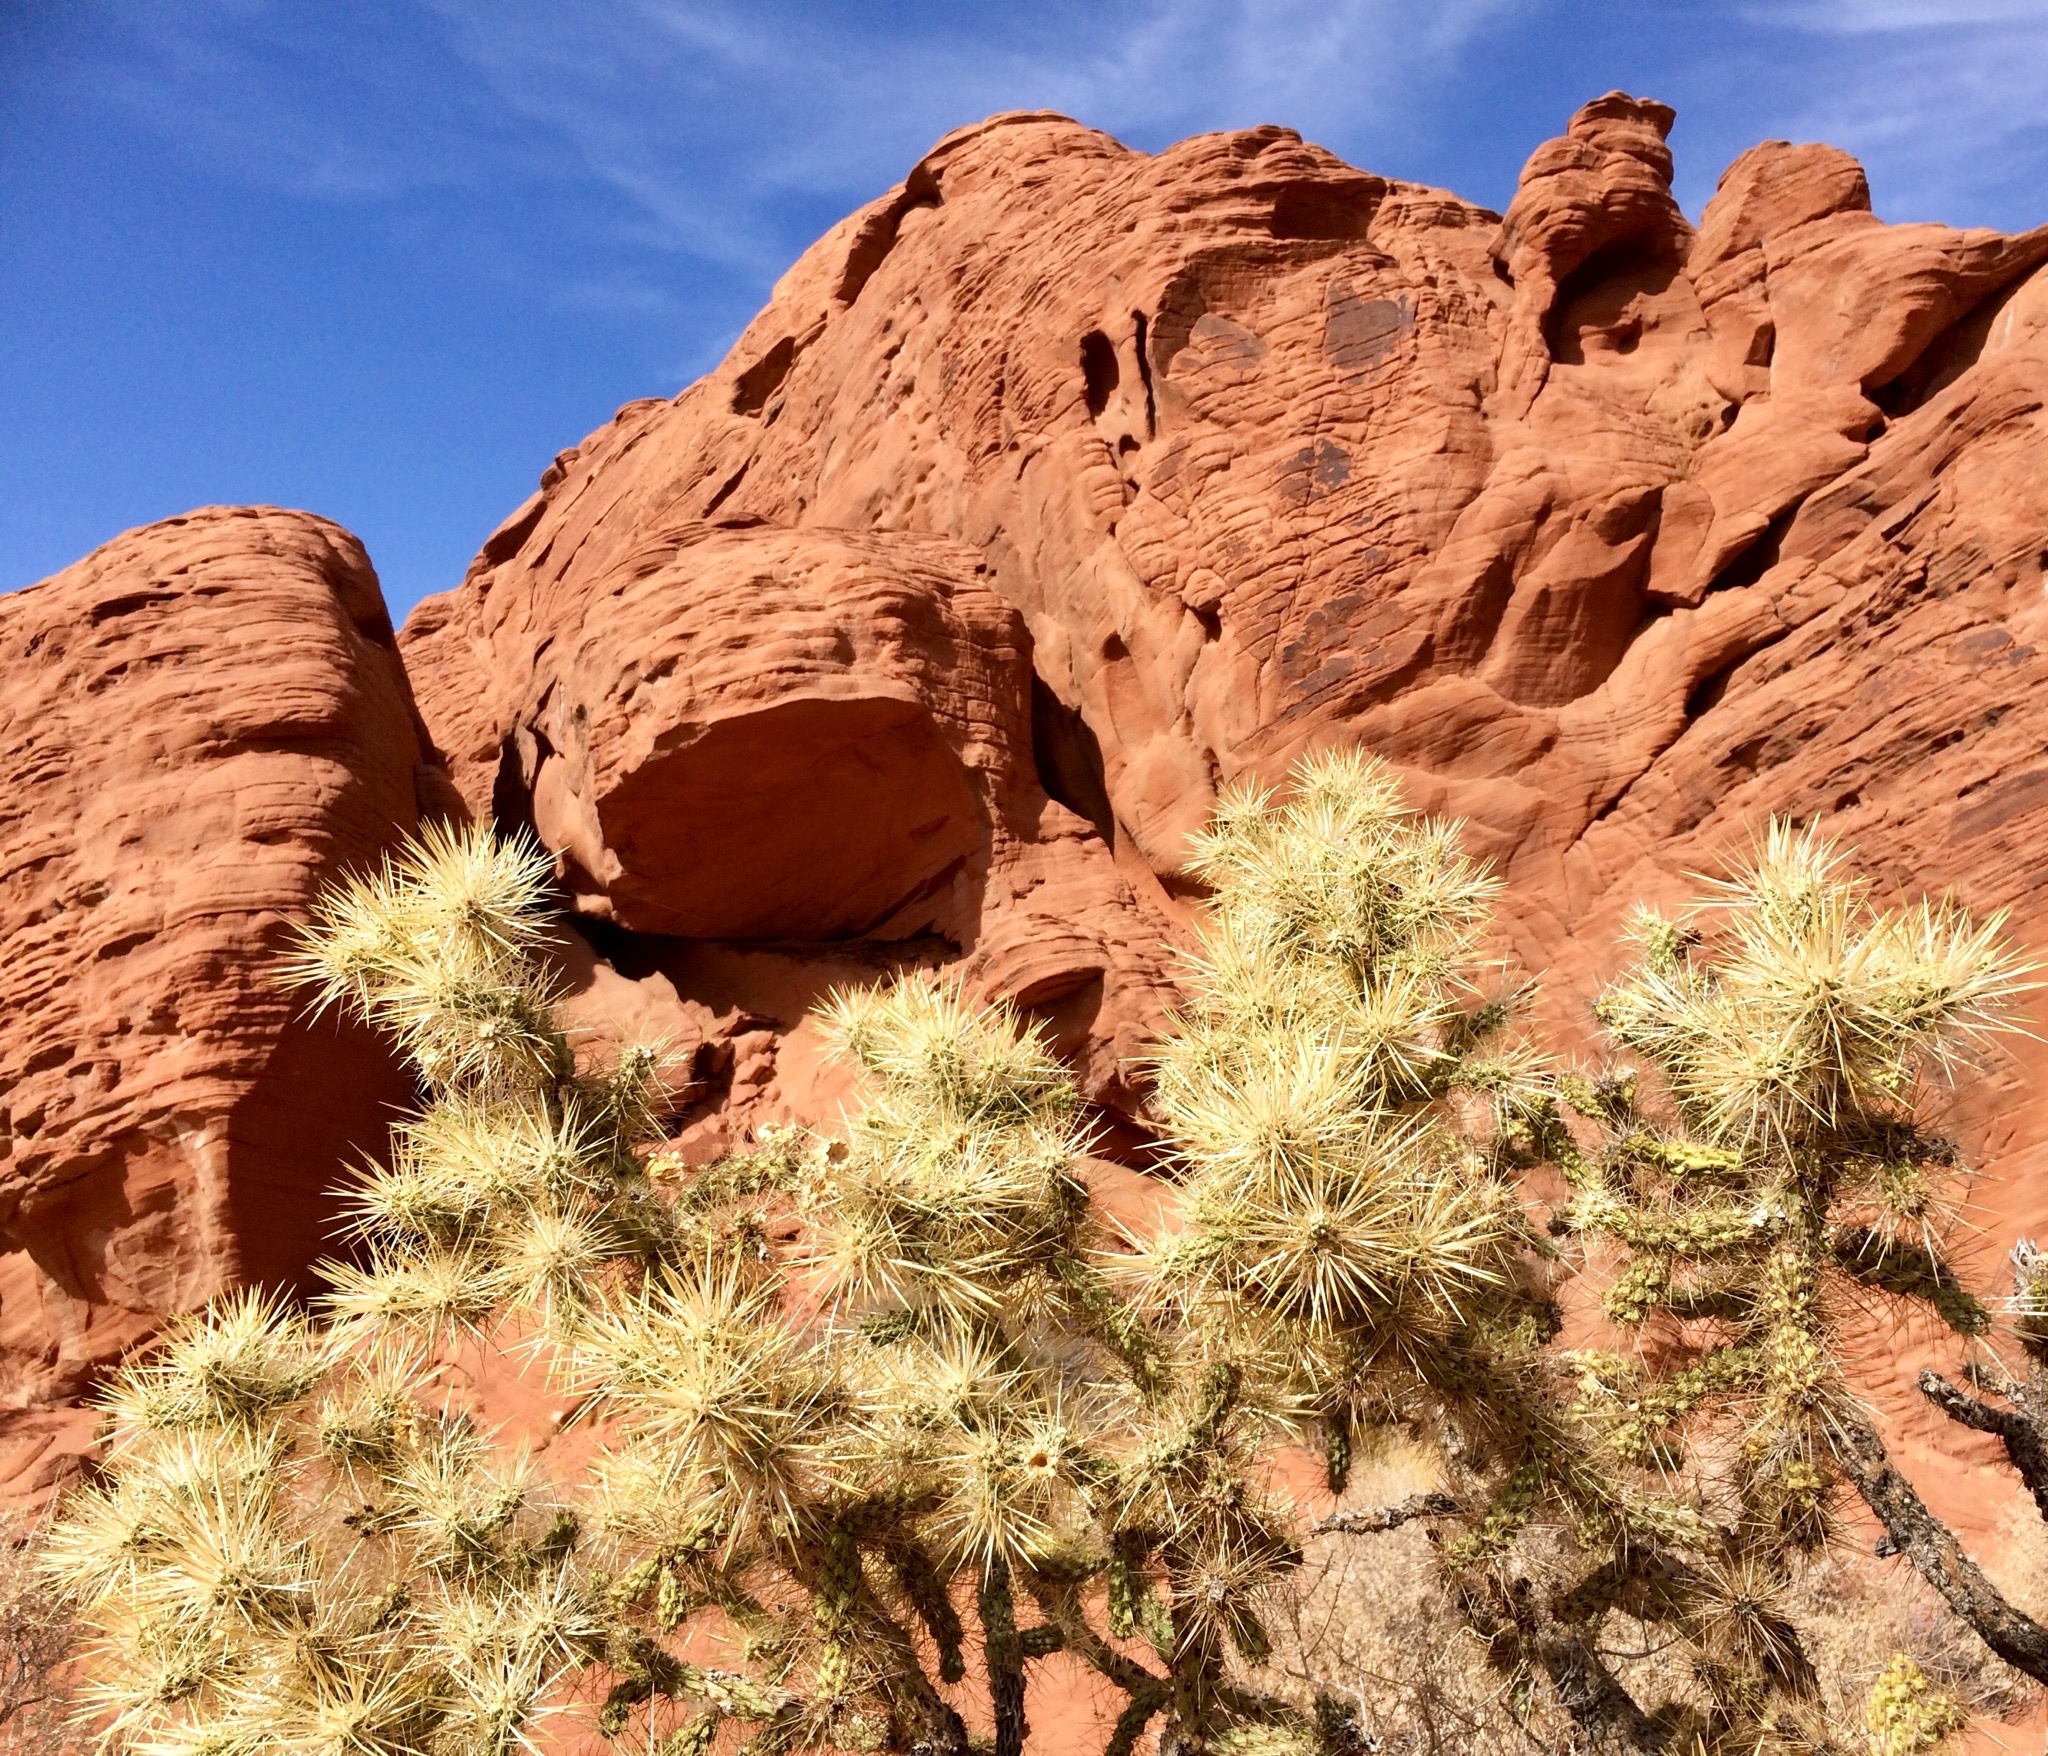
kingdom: Plantae
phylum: Tracheophyta
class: Magnoliopsida
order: Caryophyllales
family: Cactaceae
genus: Cylindropuntia
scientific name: Cylindropuntia echinocarpa
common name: Ground cholla
